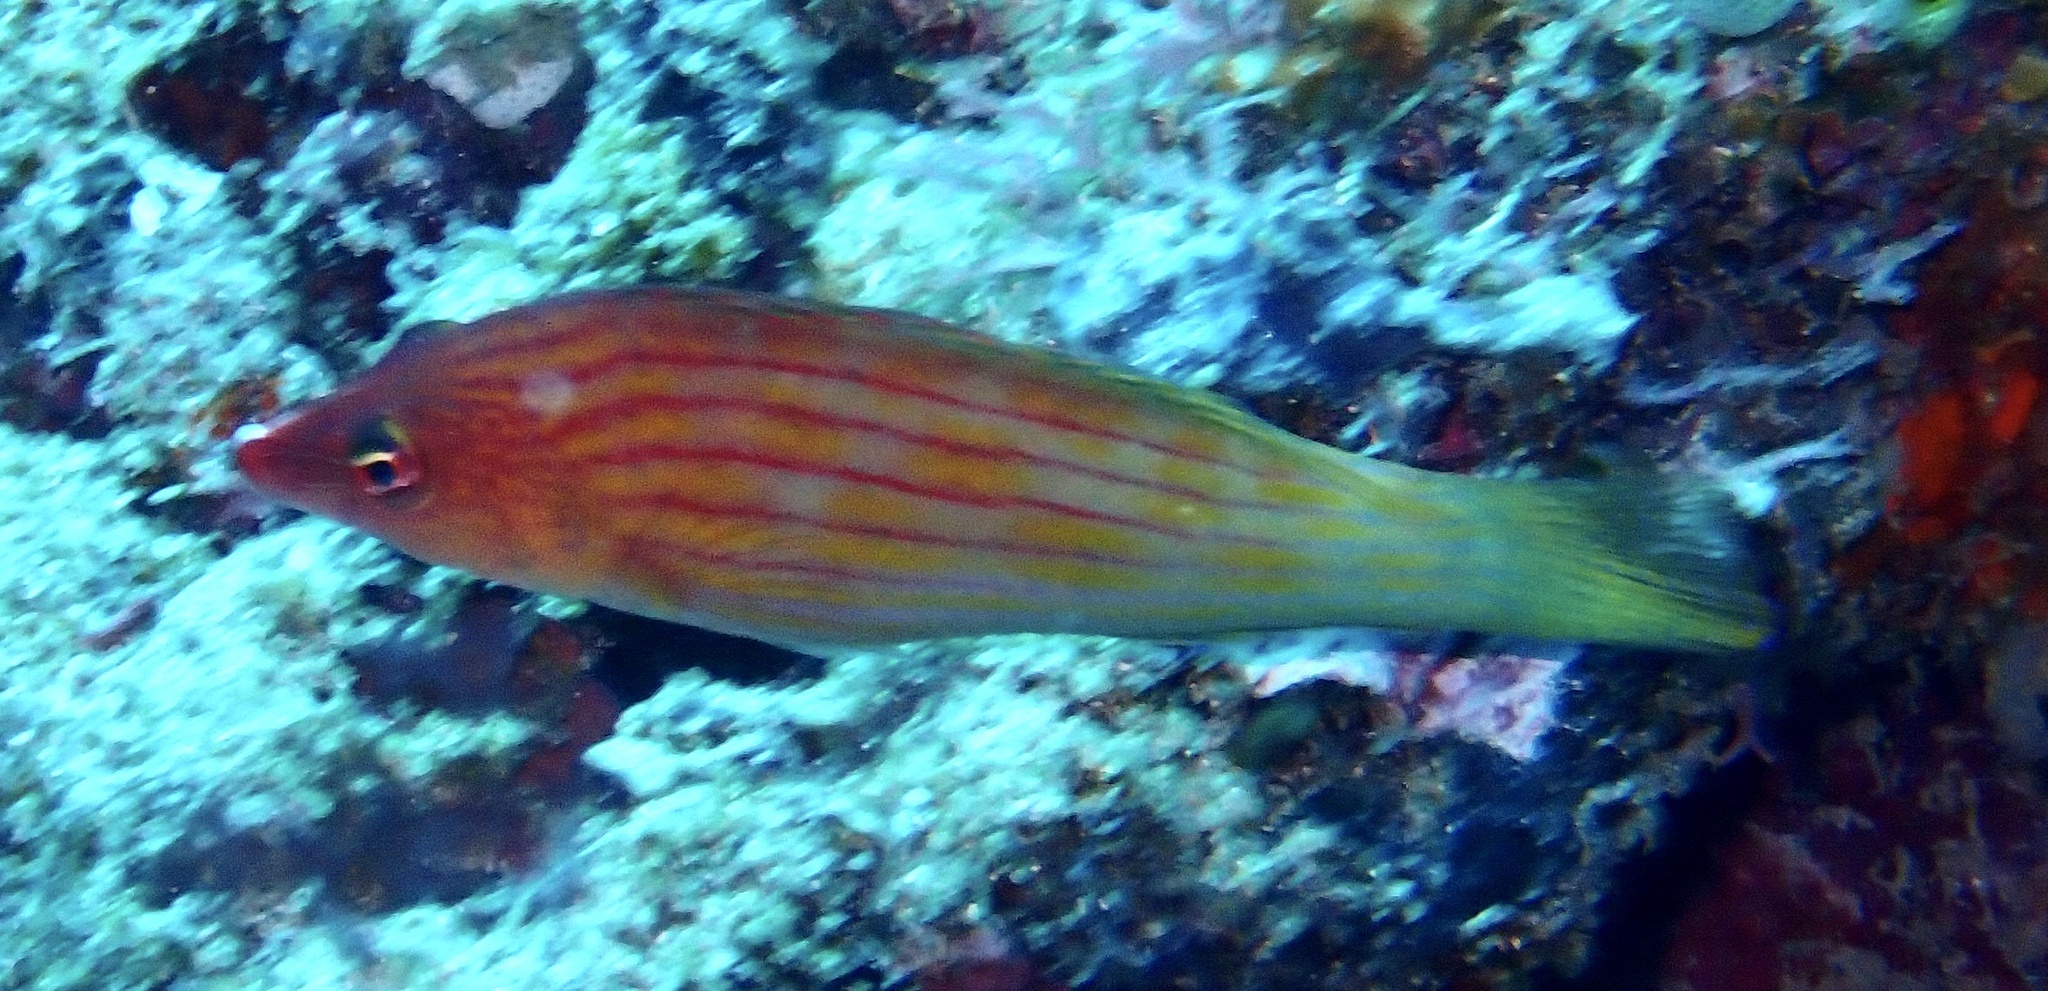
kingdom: Animalia
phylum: Chordata
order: Perciformes
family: Labridae
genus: Pseudocheilinus
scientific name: Pseudocheilinus octotaenia
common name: Eightline wrasse
